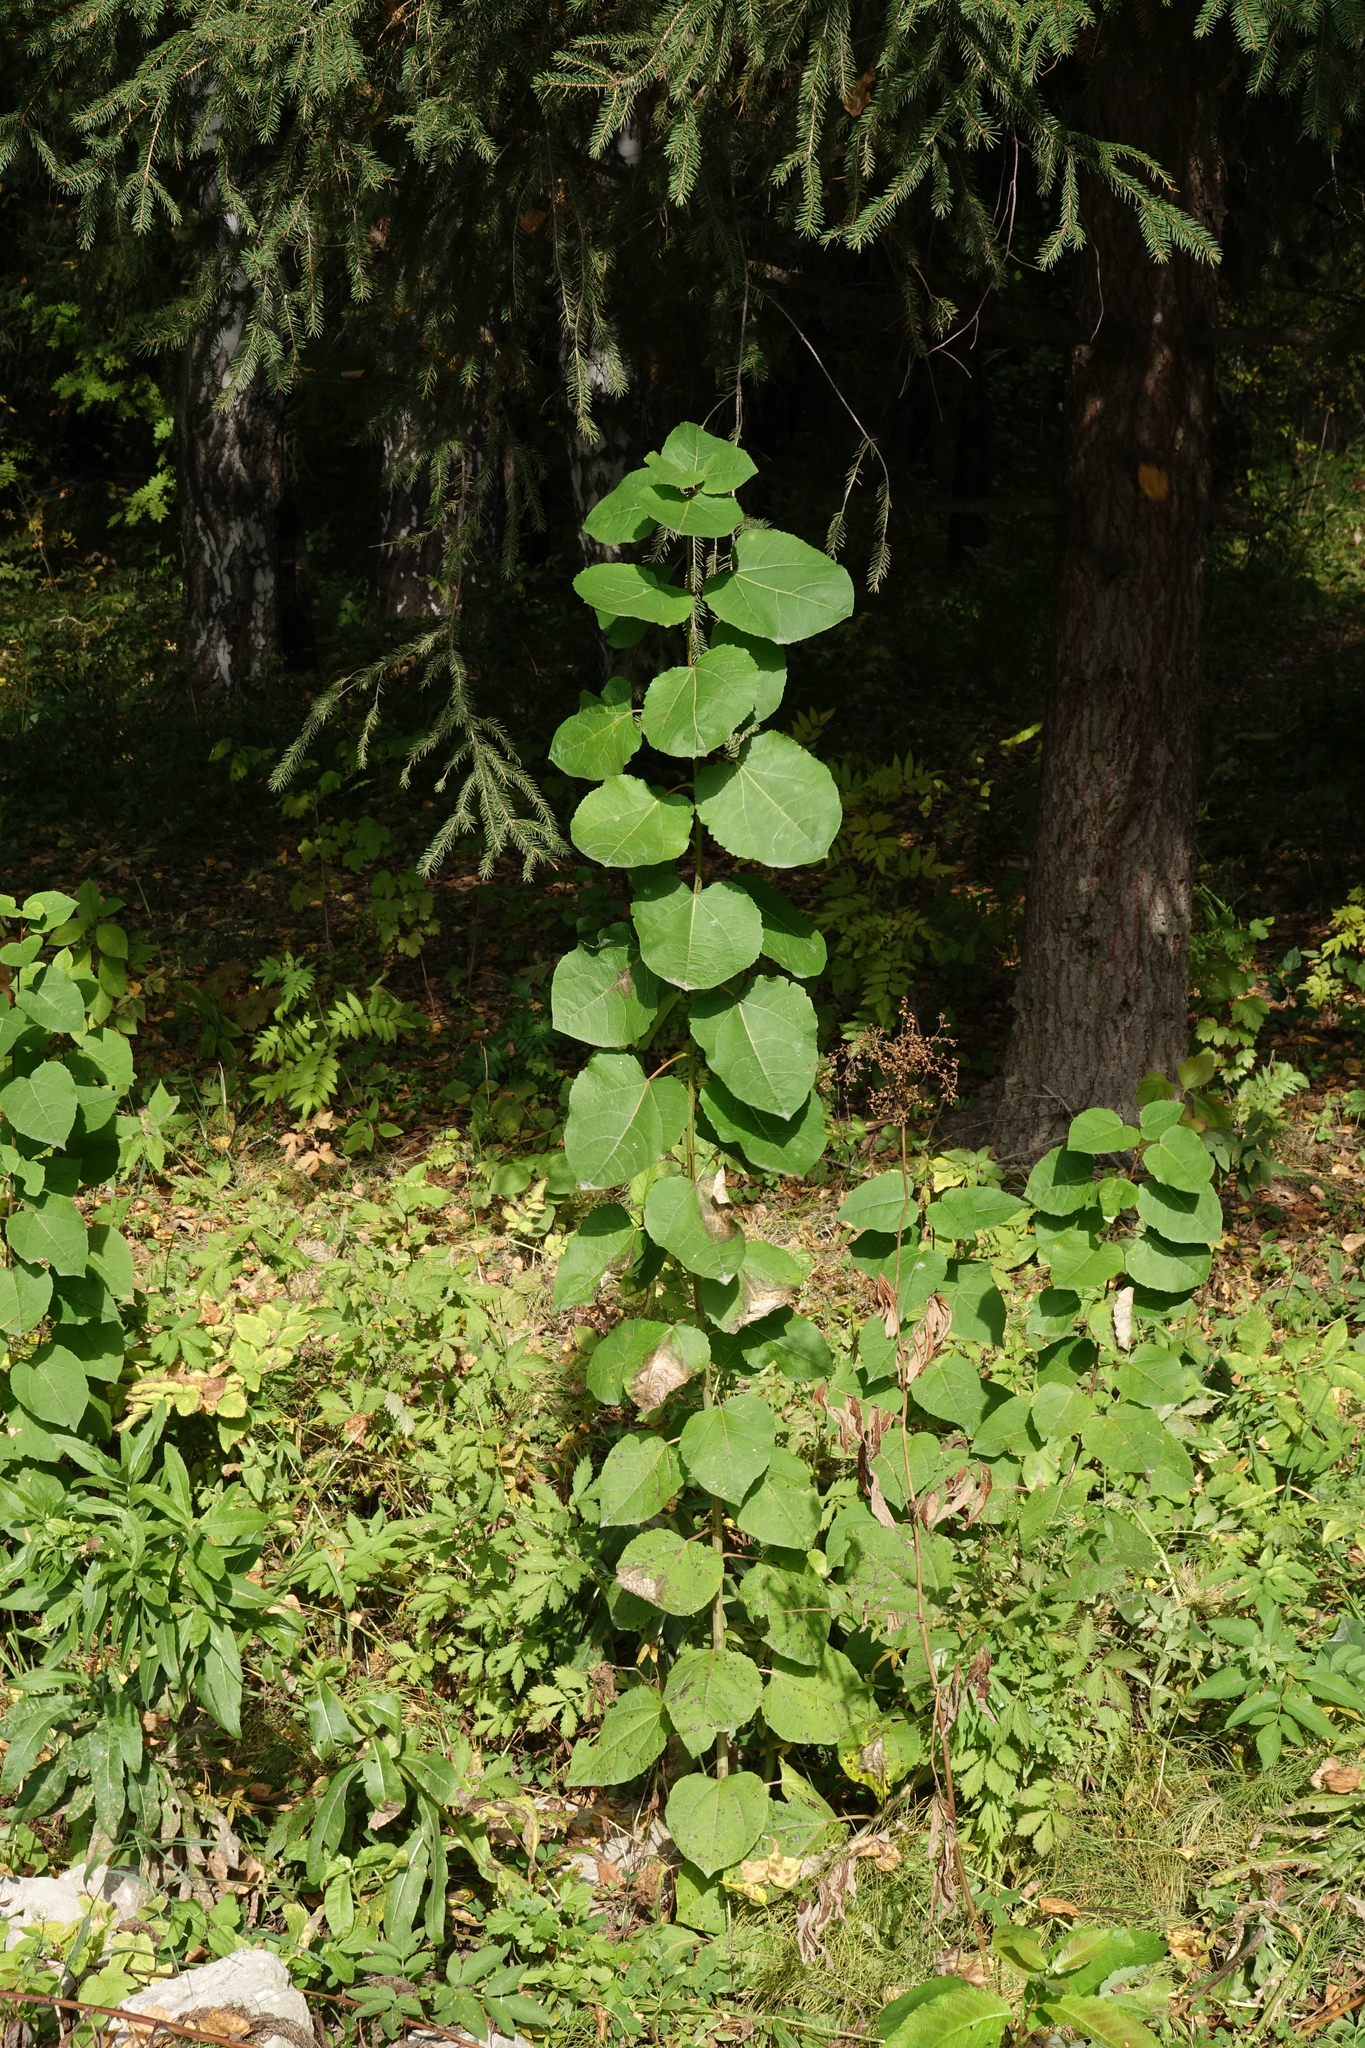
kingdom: Plantae
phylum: Tracheophyta
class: Magnoliopsida
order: Malpighiales
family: Salicaceae
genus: Populus
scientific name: Populus tremula
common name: European aspen
